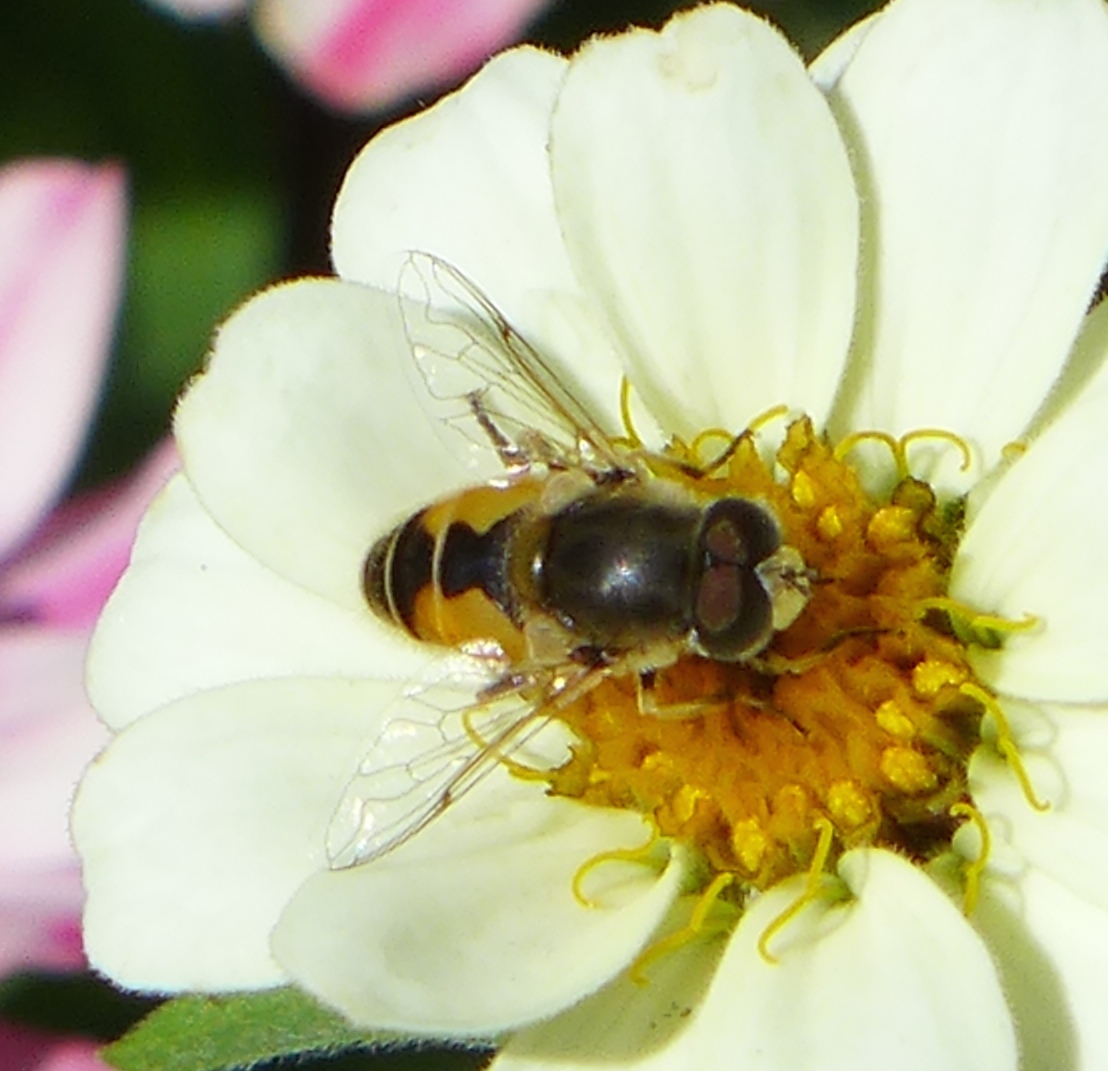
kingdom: Animalia
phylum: Arthropoda
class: Insecta
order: Diptera
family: Syrphidae
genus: Eristalis
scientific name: Eristalis arbustorum
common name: Hover fly
